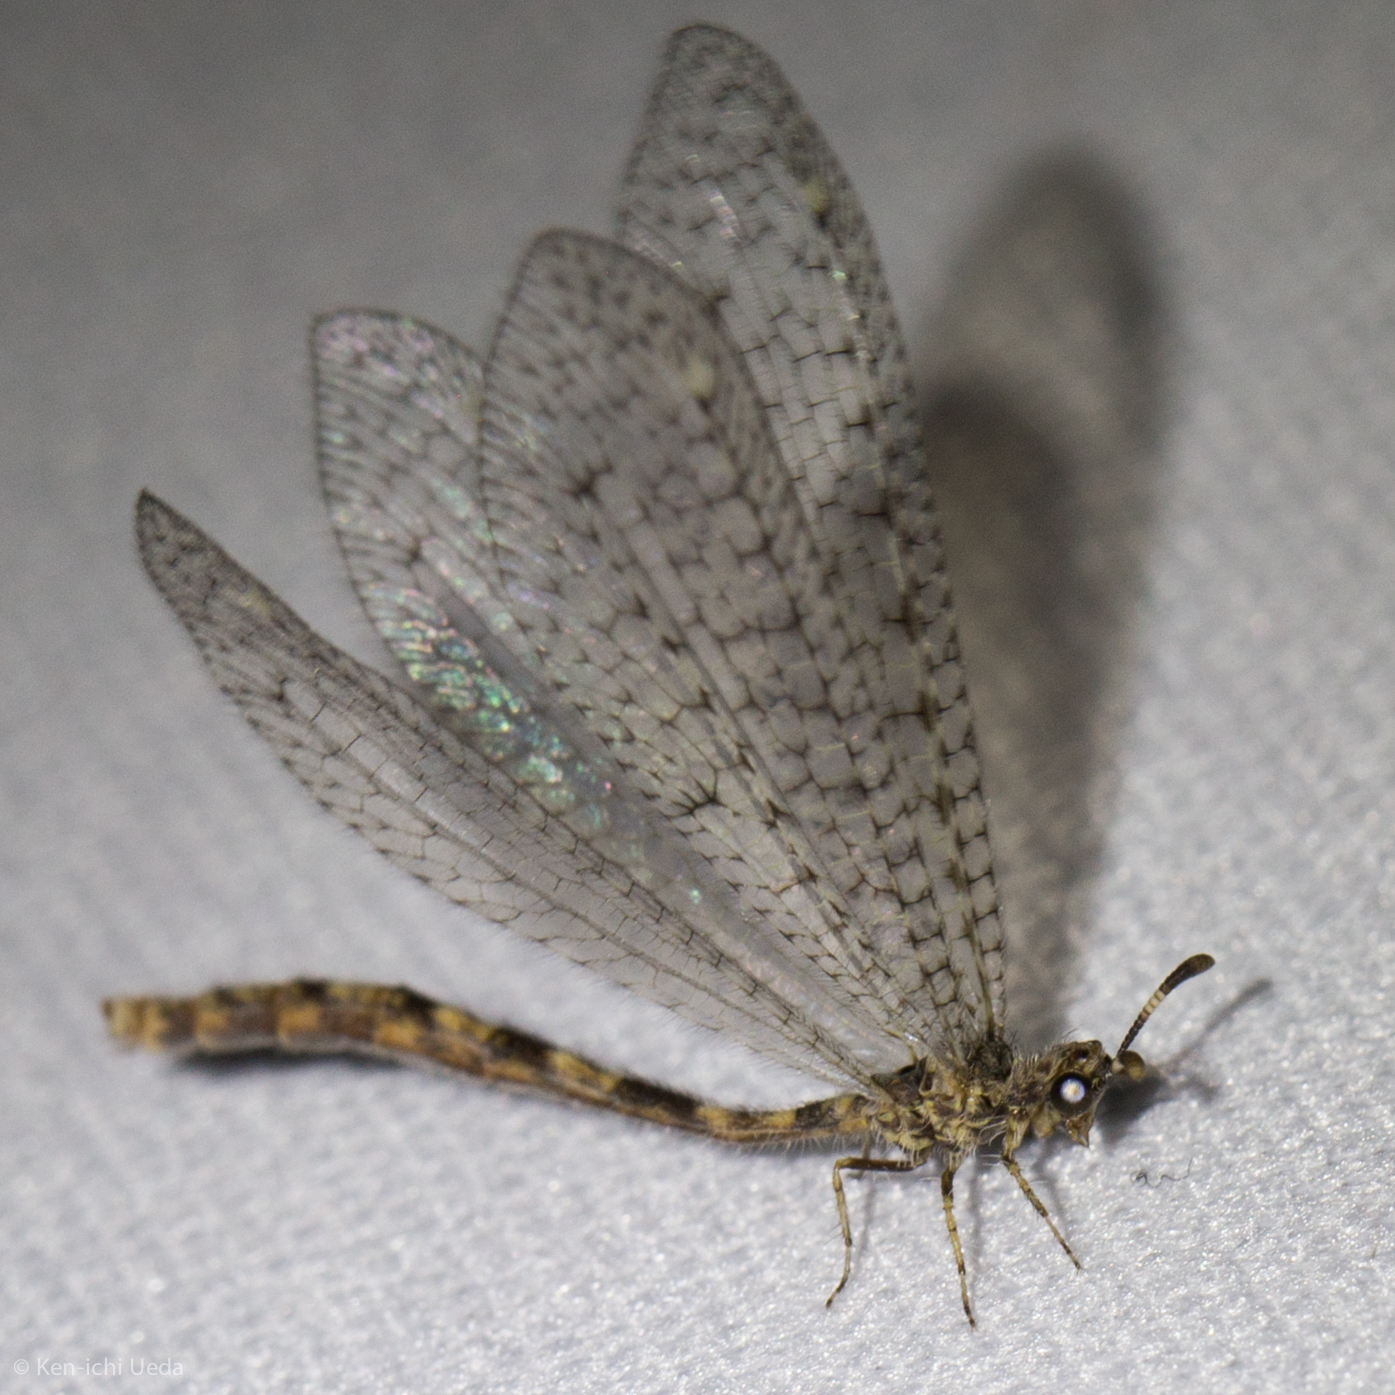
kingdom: Animalia
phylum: Arthropoda
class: Insecta
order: Neuroptera
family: Myrmeleontidae
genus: Menkeleon
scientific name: Menkeleon bellulus
